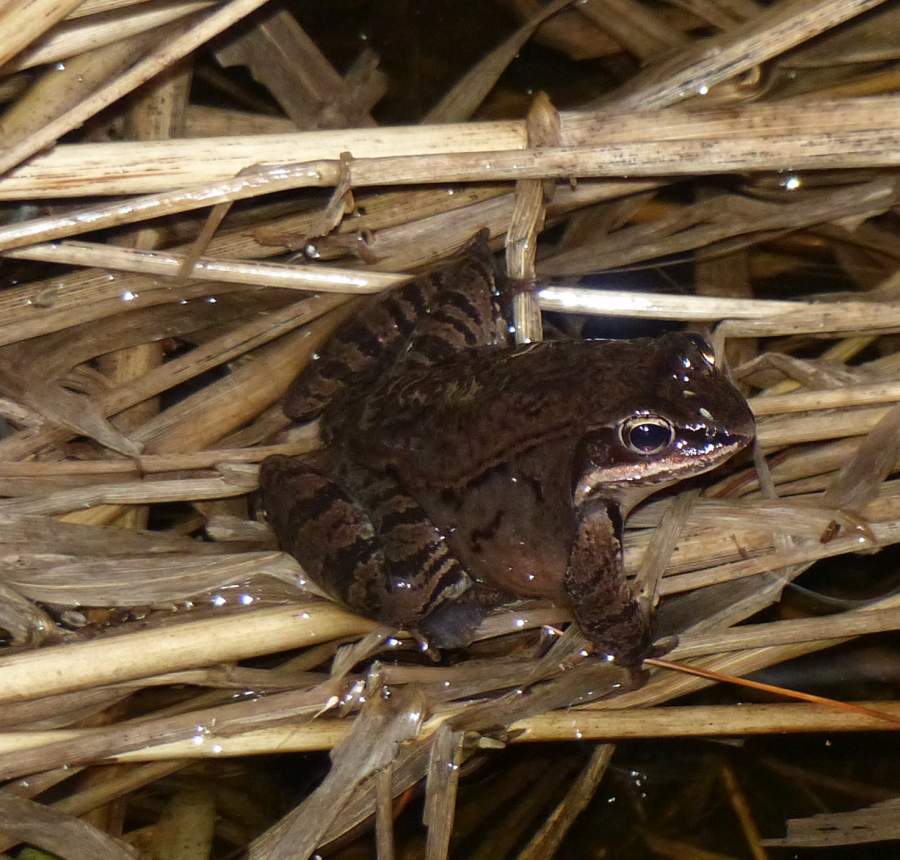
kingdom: Animalia
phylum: Chordata
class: Amphibia
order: Anura
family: Ranidae
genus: Lithobates
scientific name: Lithobates sylvaticus
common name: Wood frog
